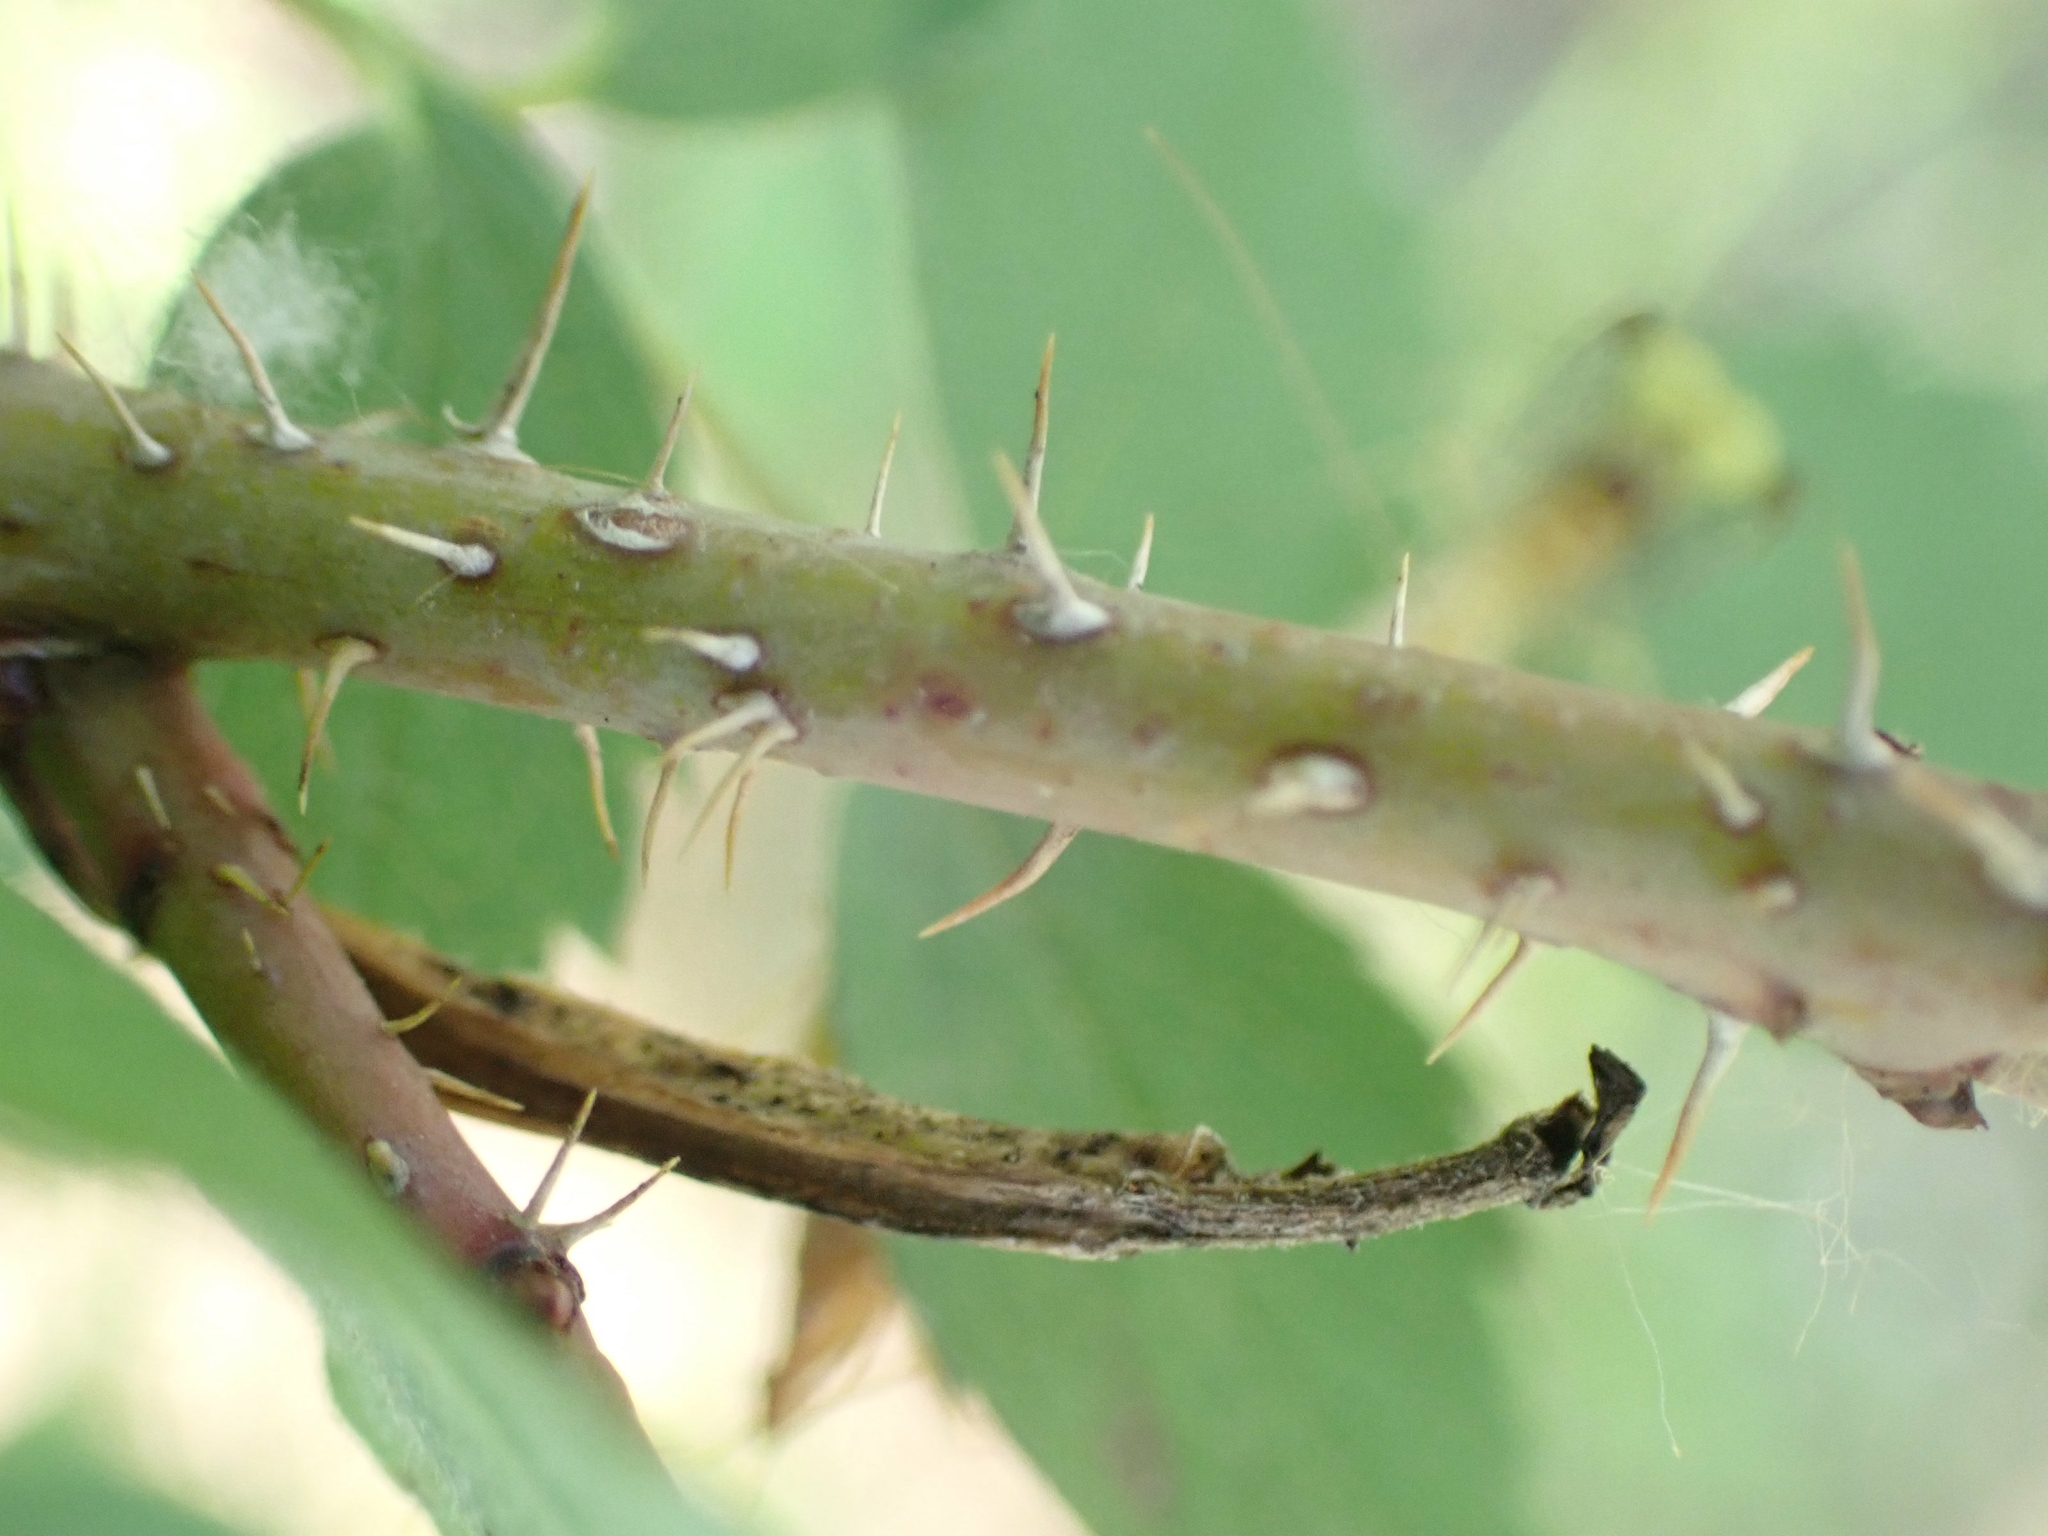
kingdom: Plantae
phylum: Tracheophyta
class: Magnoliopsida
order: Rosales
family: Rosaceae
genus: Rosa
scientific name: Rosa arkansana
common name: Prairie rose
